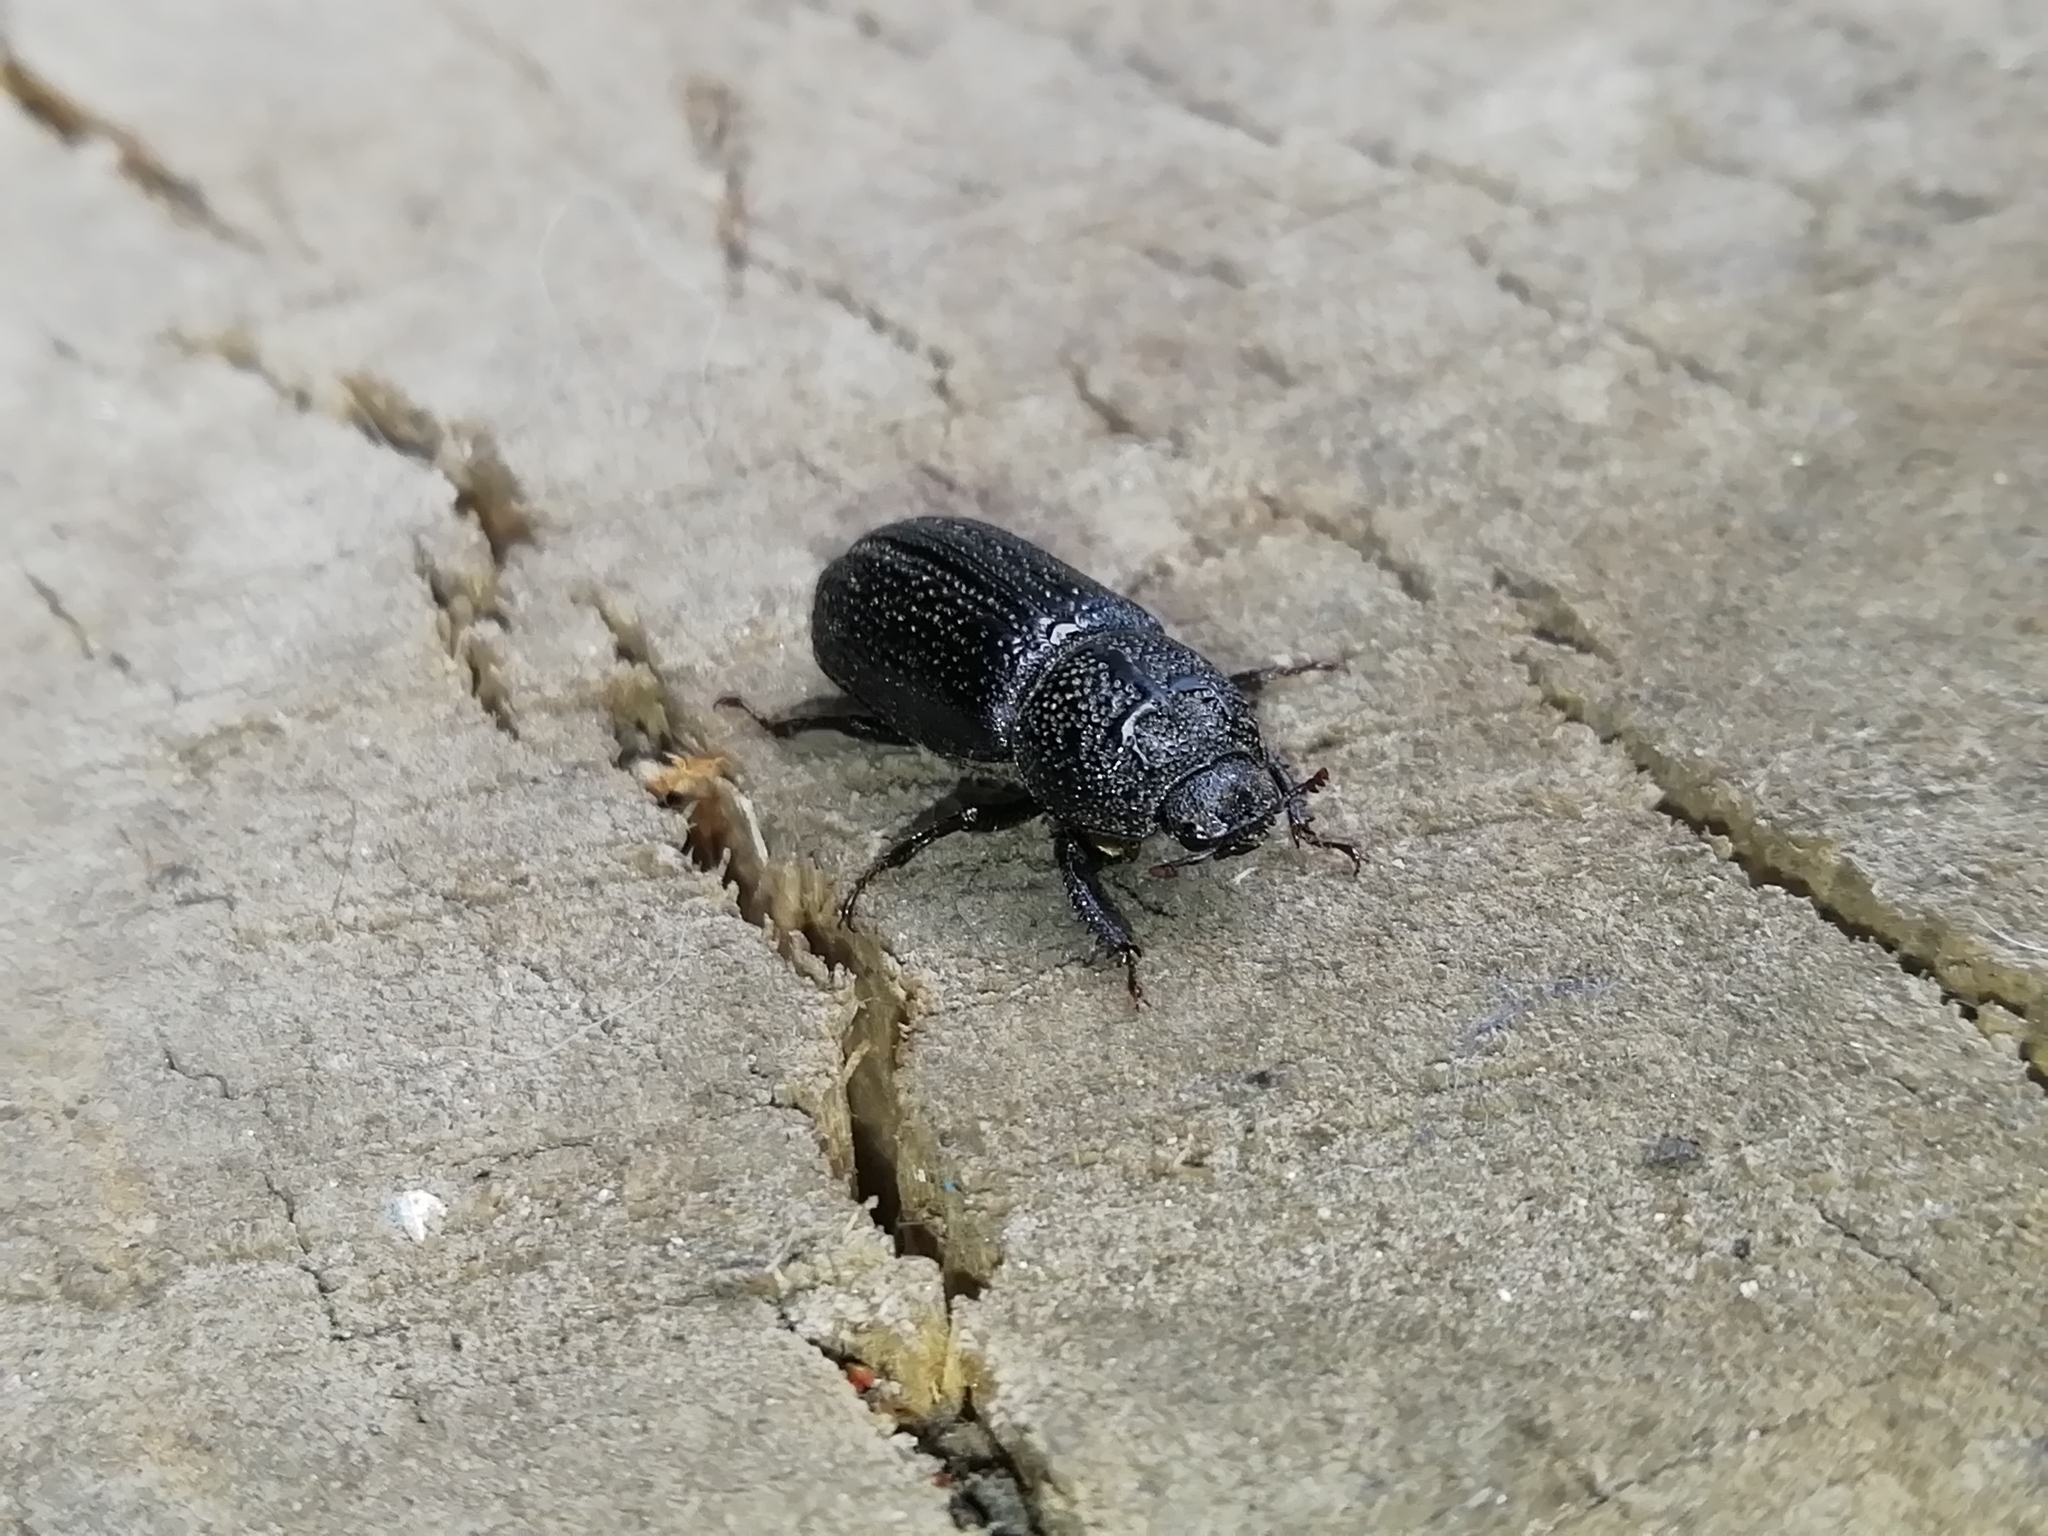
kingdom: Animalia
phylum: Arthropoda
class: Insecta
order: Coleoptera
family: Lucanidae
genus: Sinodendron
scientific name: Sinodendron cylindricum
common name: Rhinoceros beetle
